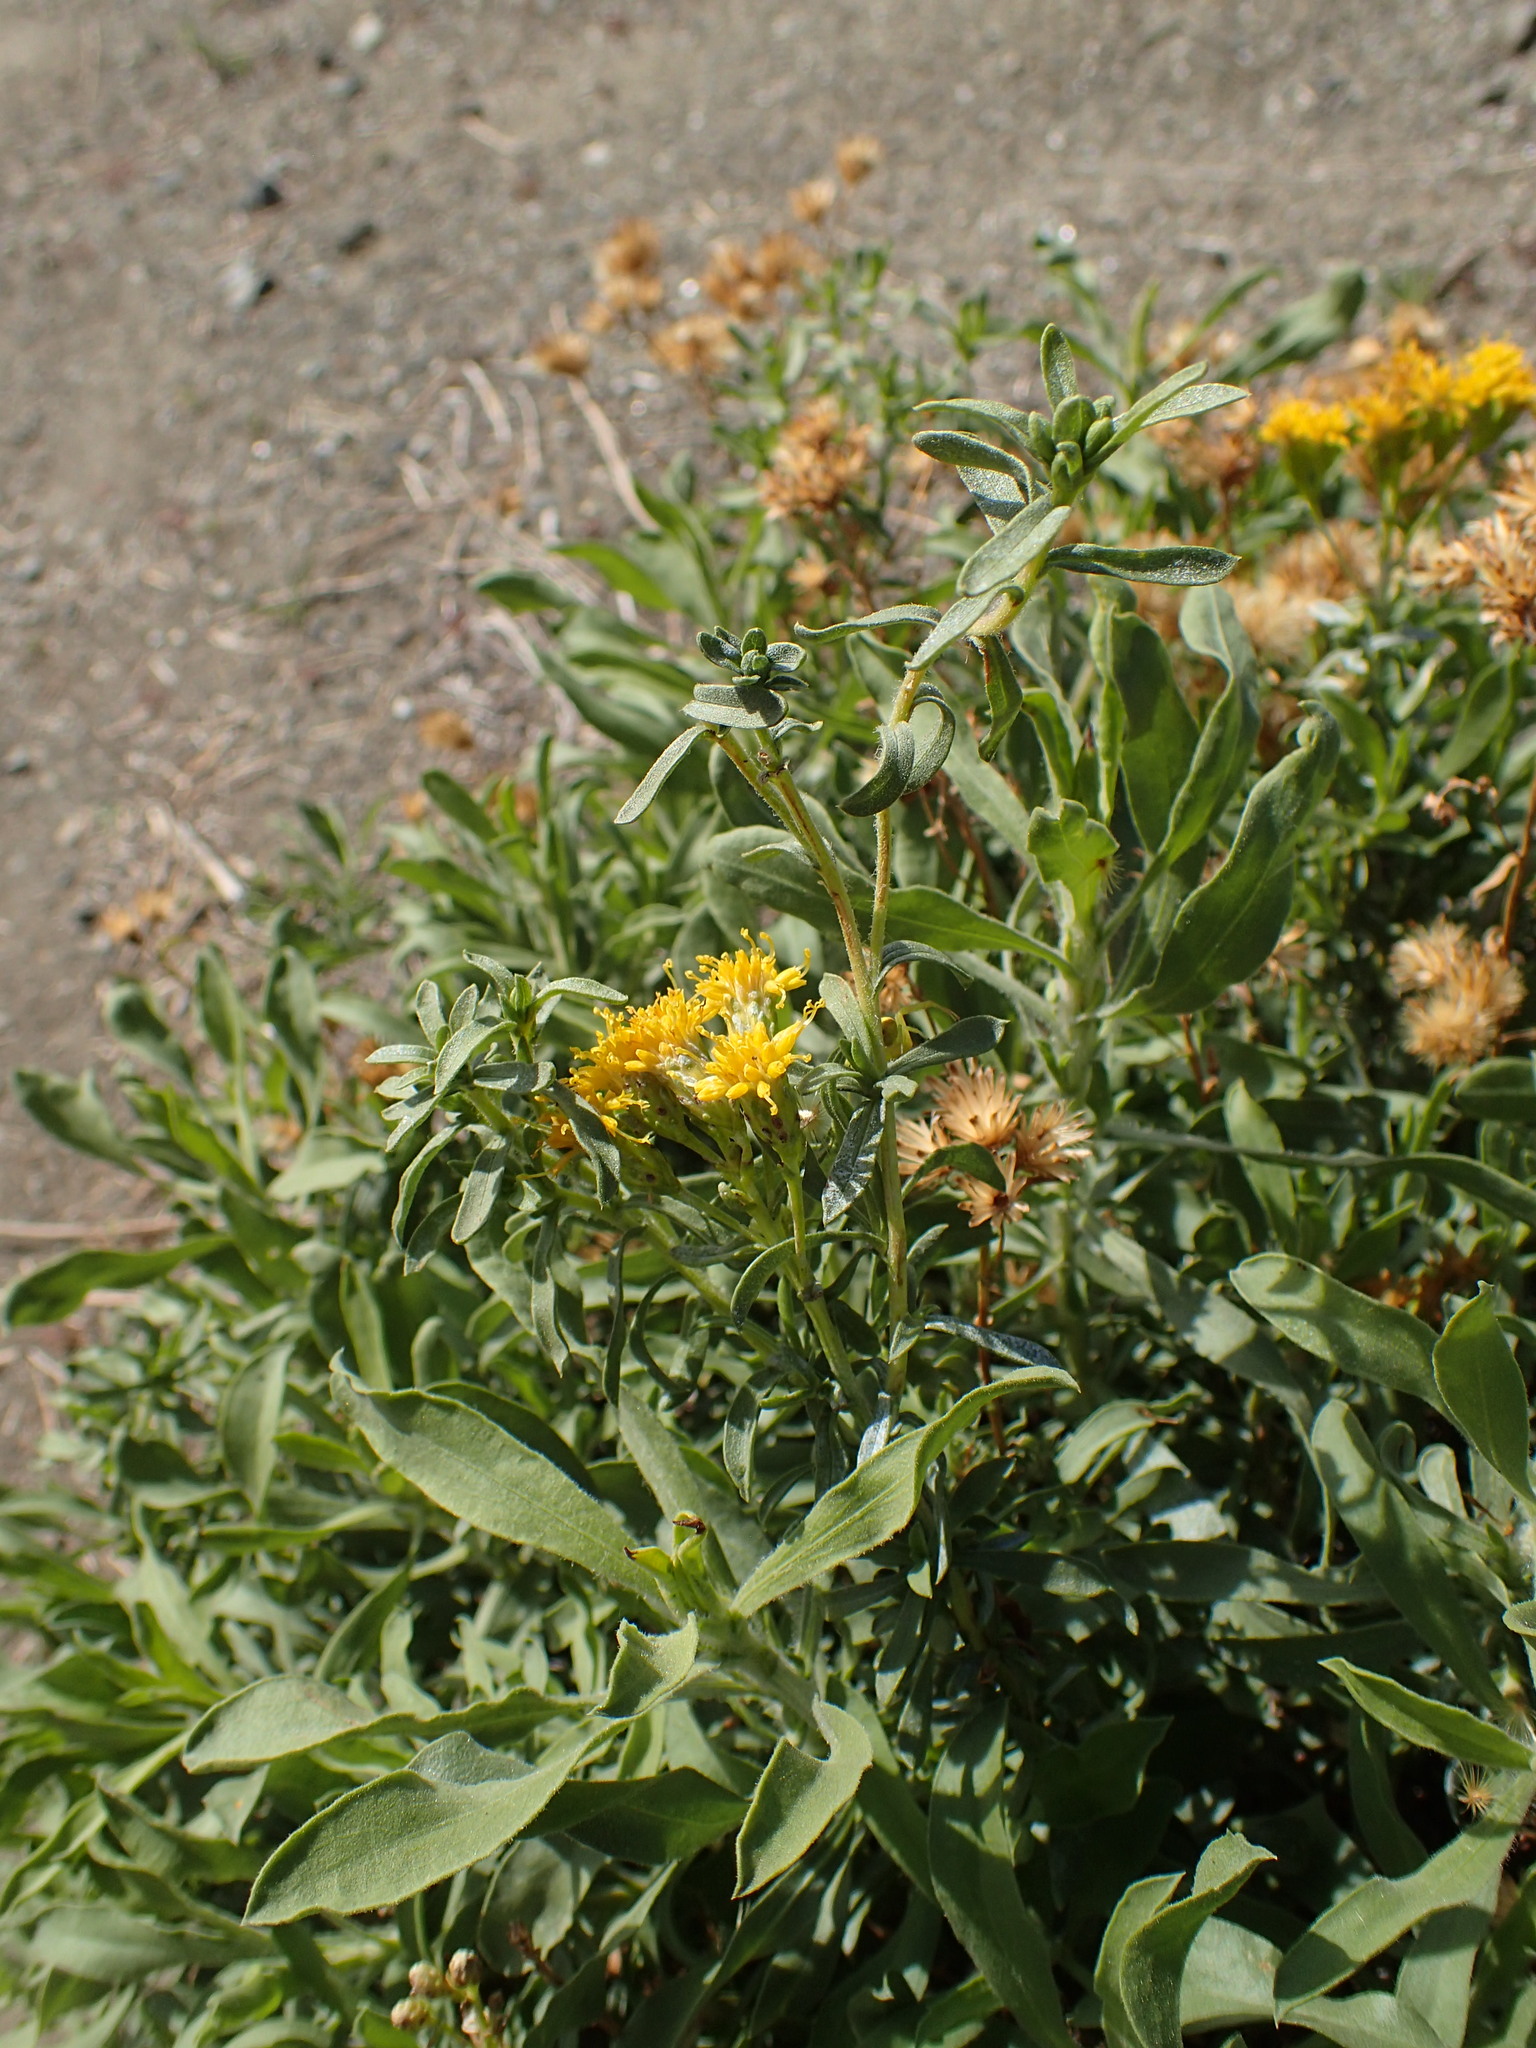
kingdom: Plantae
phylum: Tracheophyta
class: Magnoliopsida
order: Asterales
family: Asteraceae
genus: Isocoma
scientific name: Isocoma menziesii
